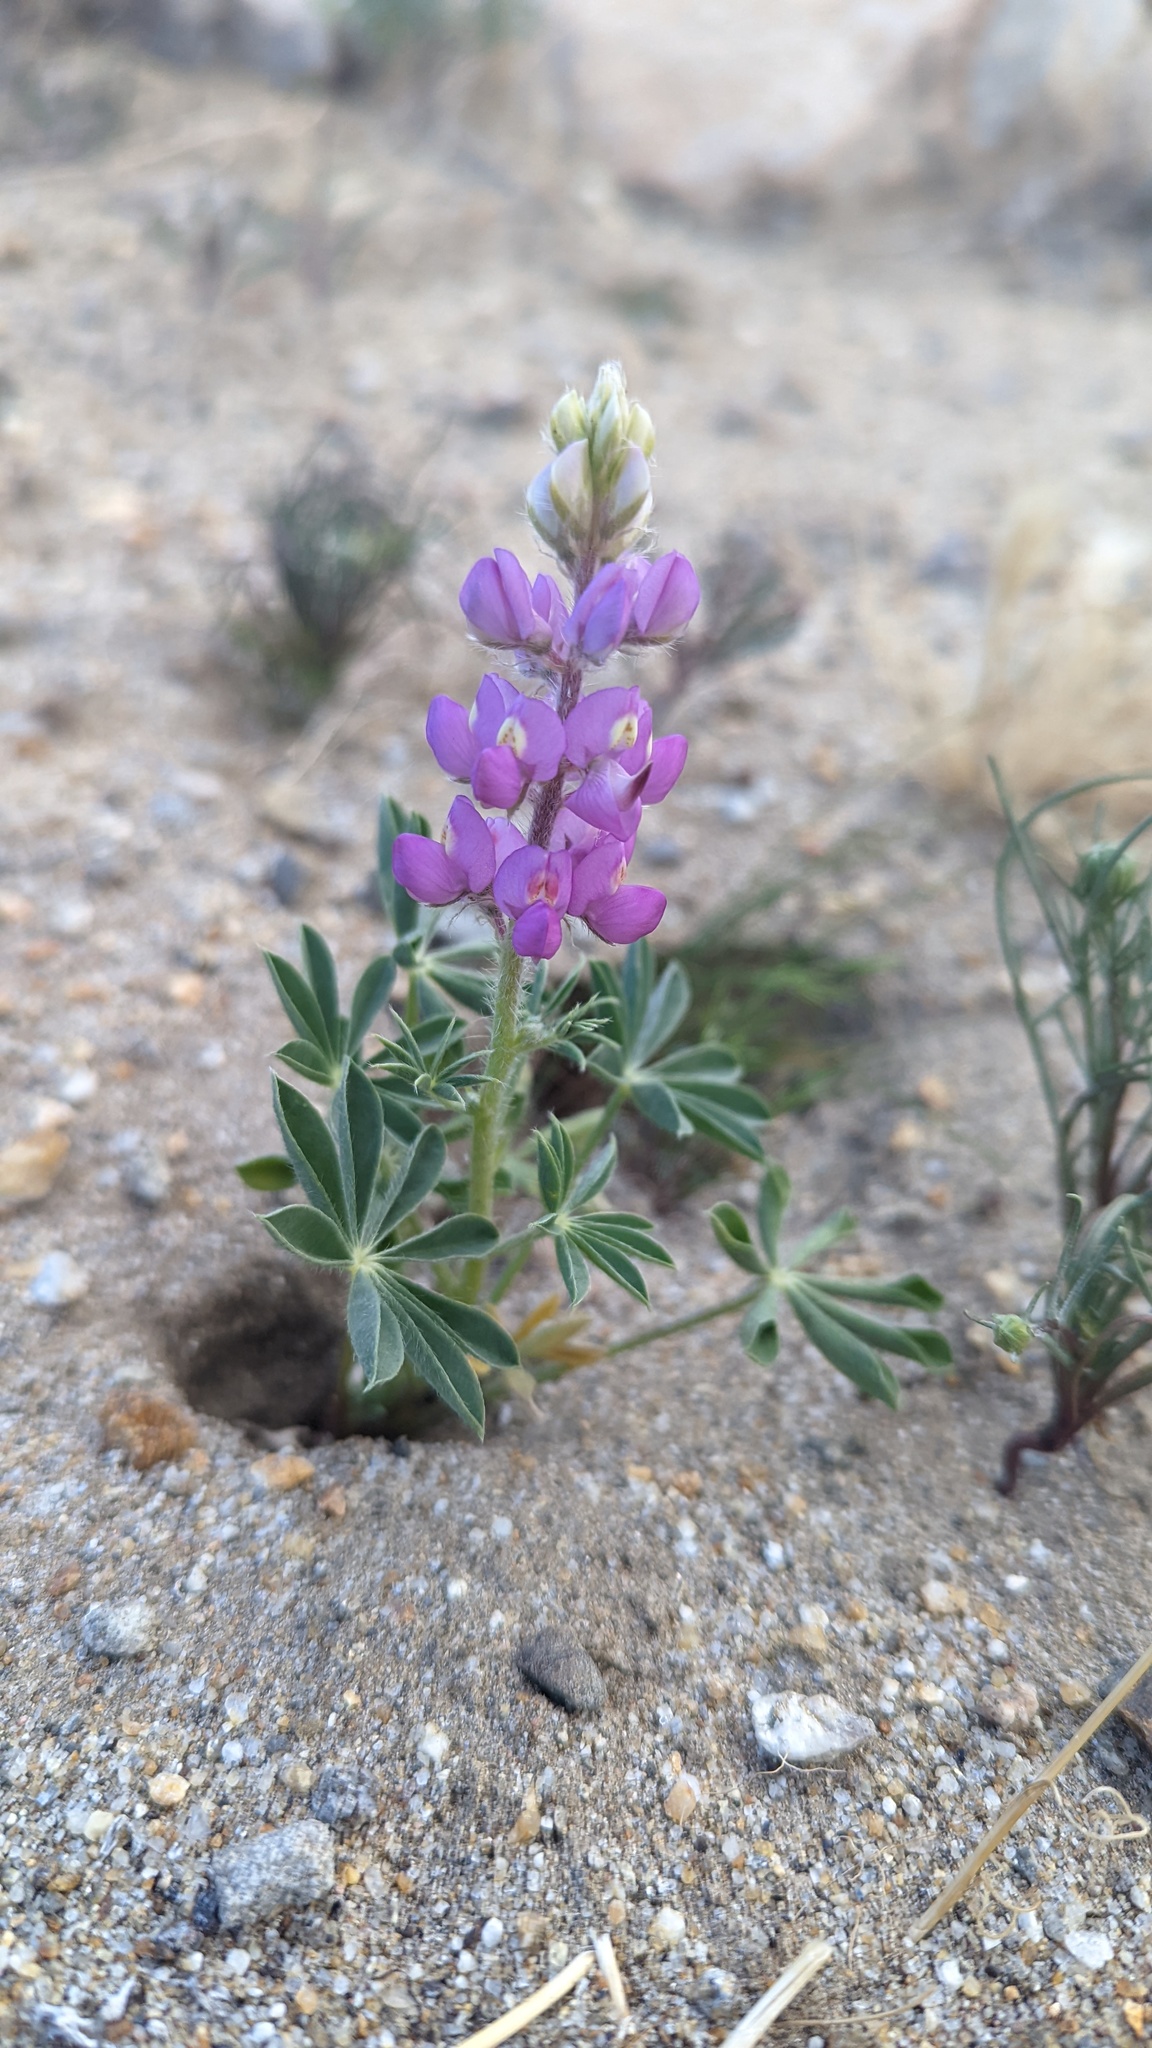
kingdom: Plantae
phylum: Tracheophyta
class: Magnoliopsida
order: Fabales
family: Fabaceae
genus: Lupinus
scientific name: Lupinus arizonicus
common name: Arizona lupine
